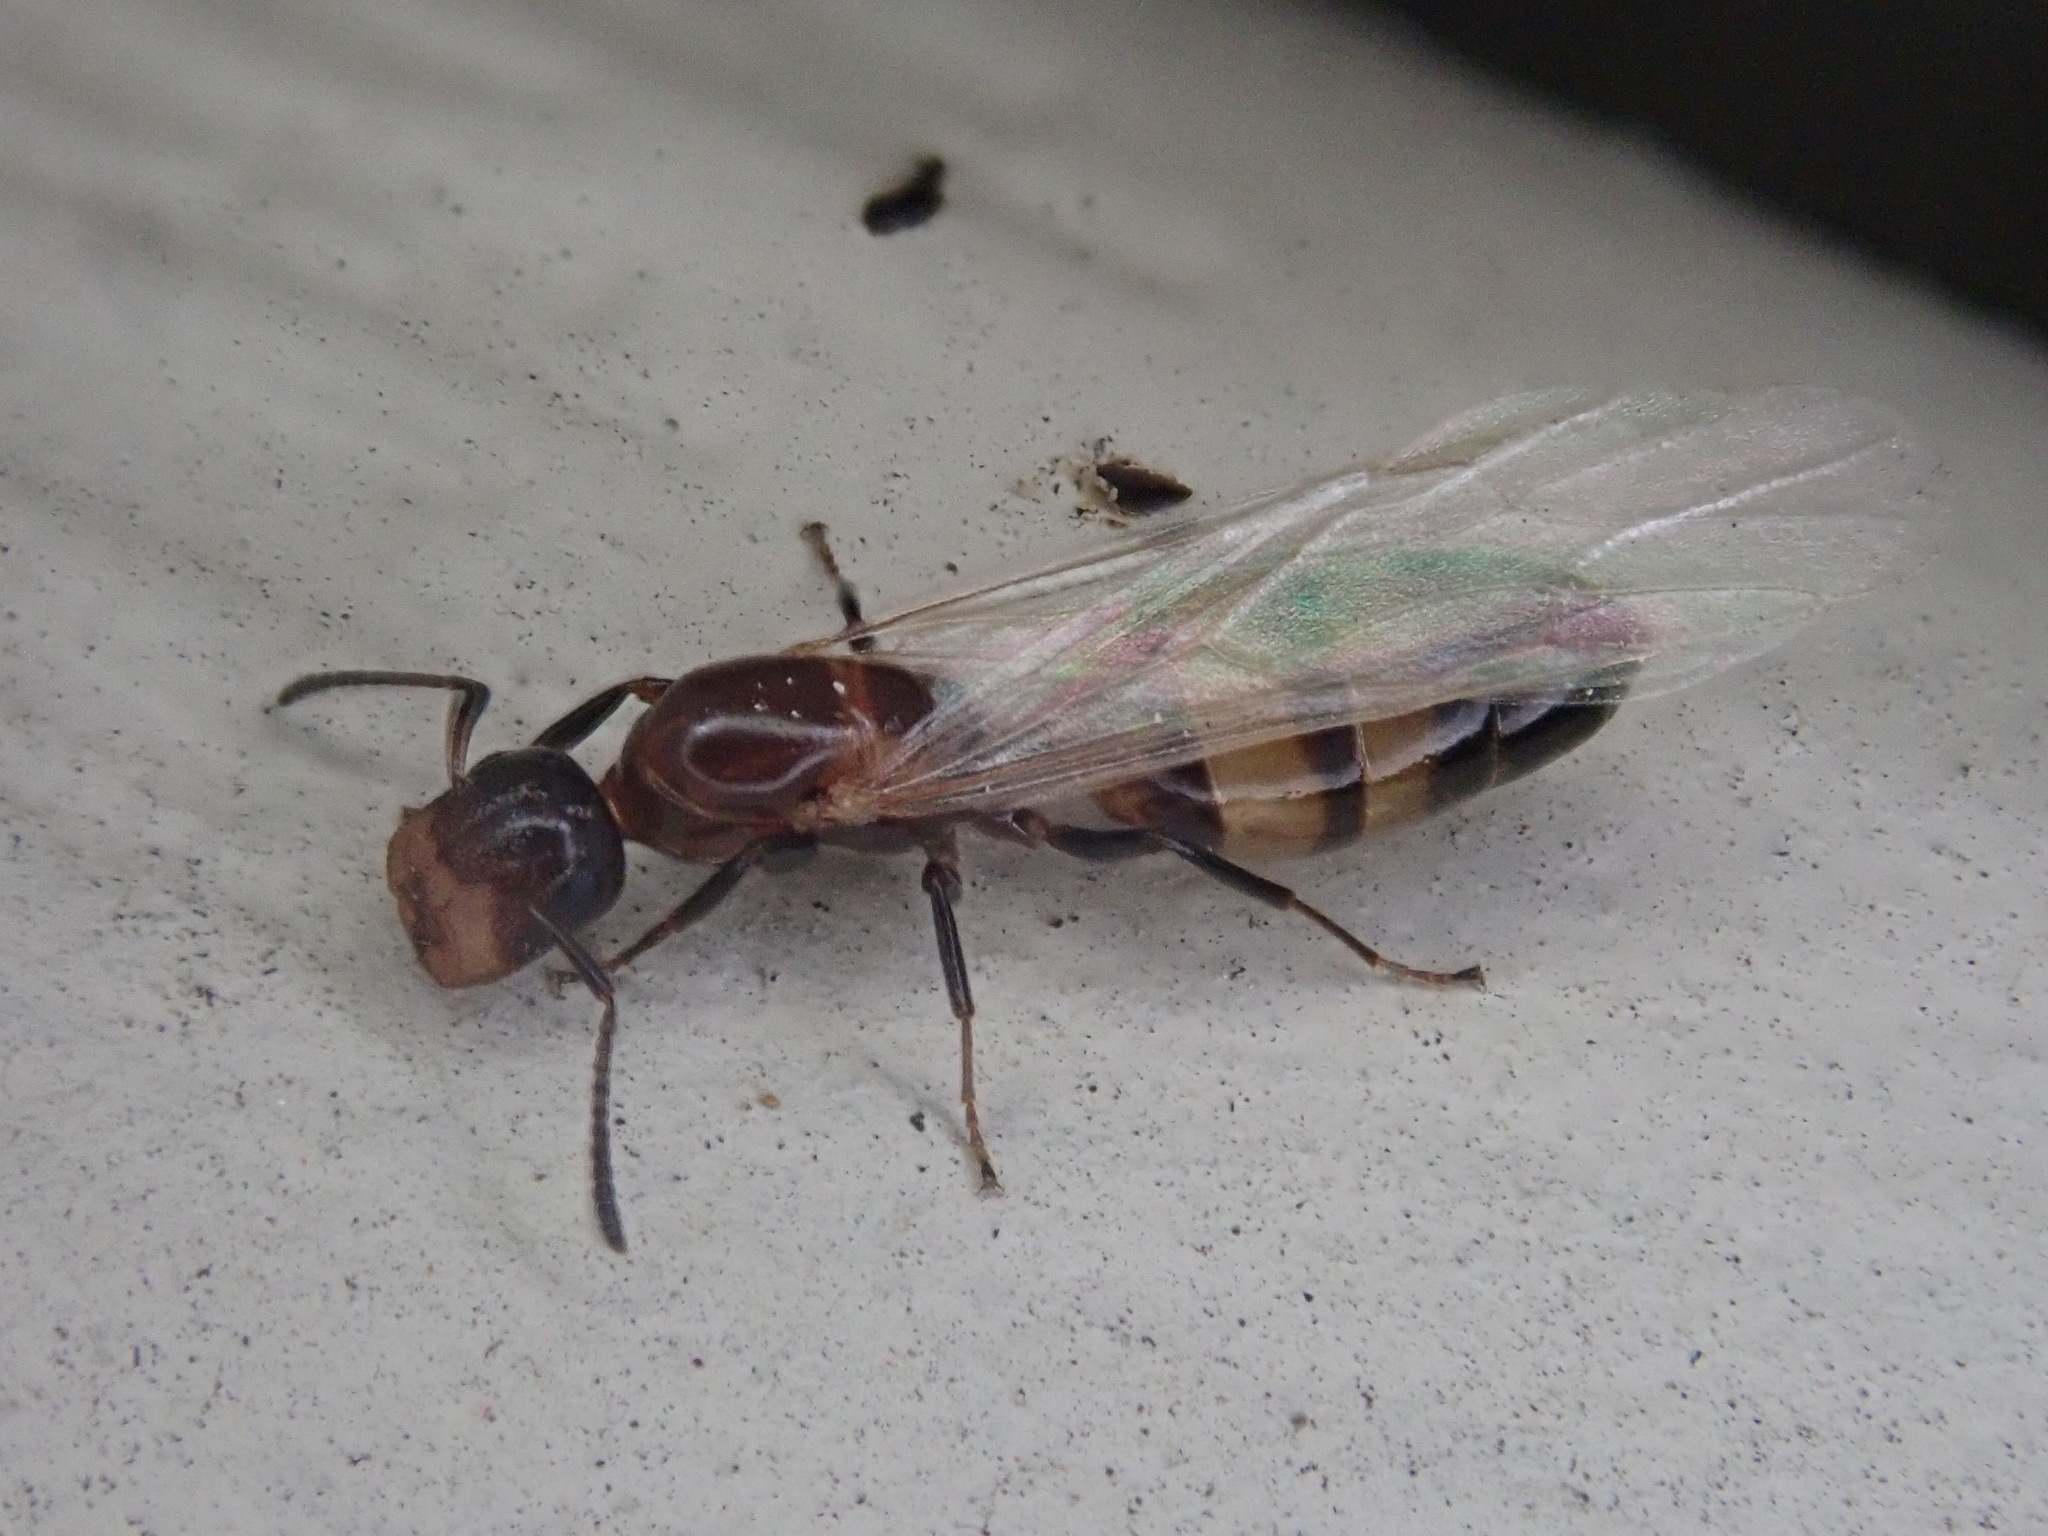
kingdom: Animalia
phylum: Arthropoda
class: Insecta
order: Hymenoptera
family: Formicidae
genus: Colobopsis
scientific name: Colobopsis impressa
